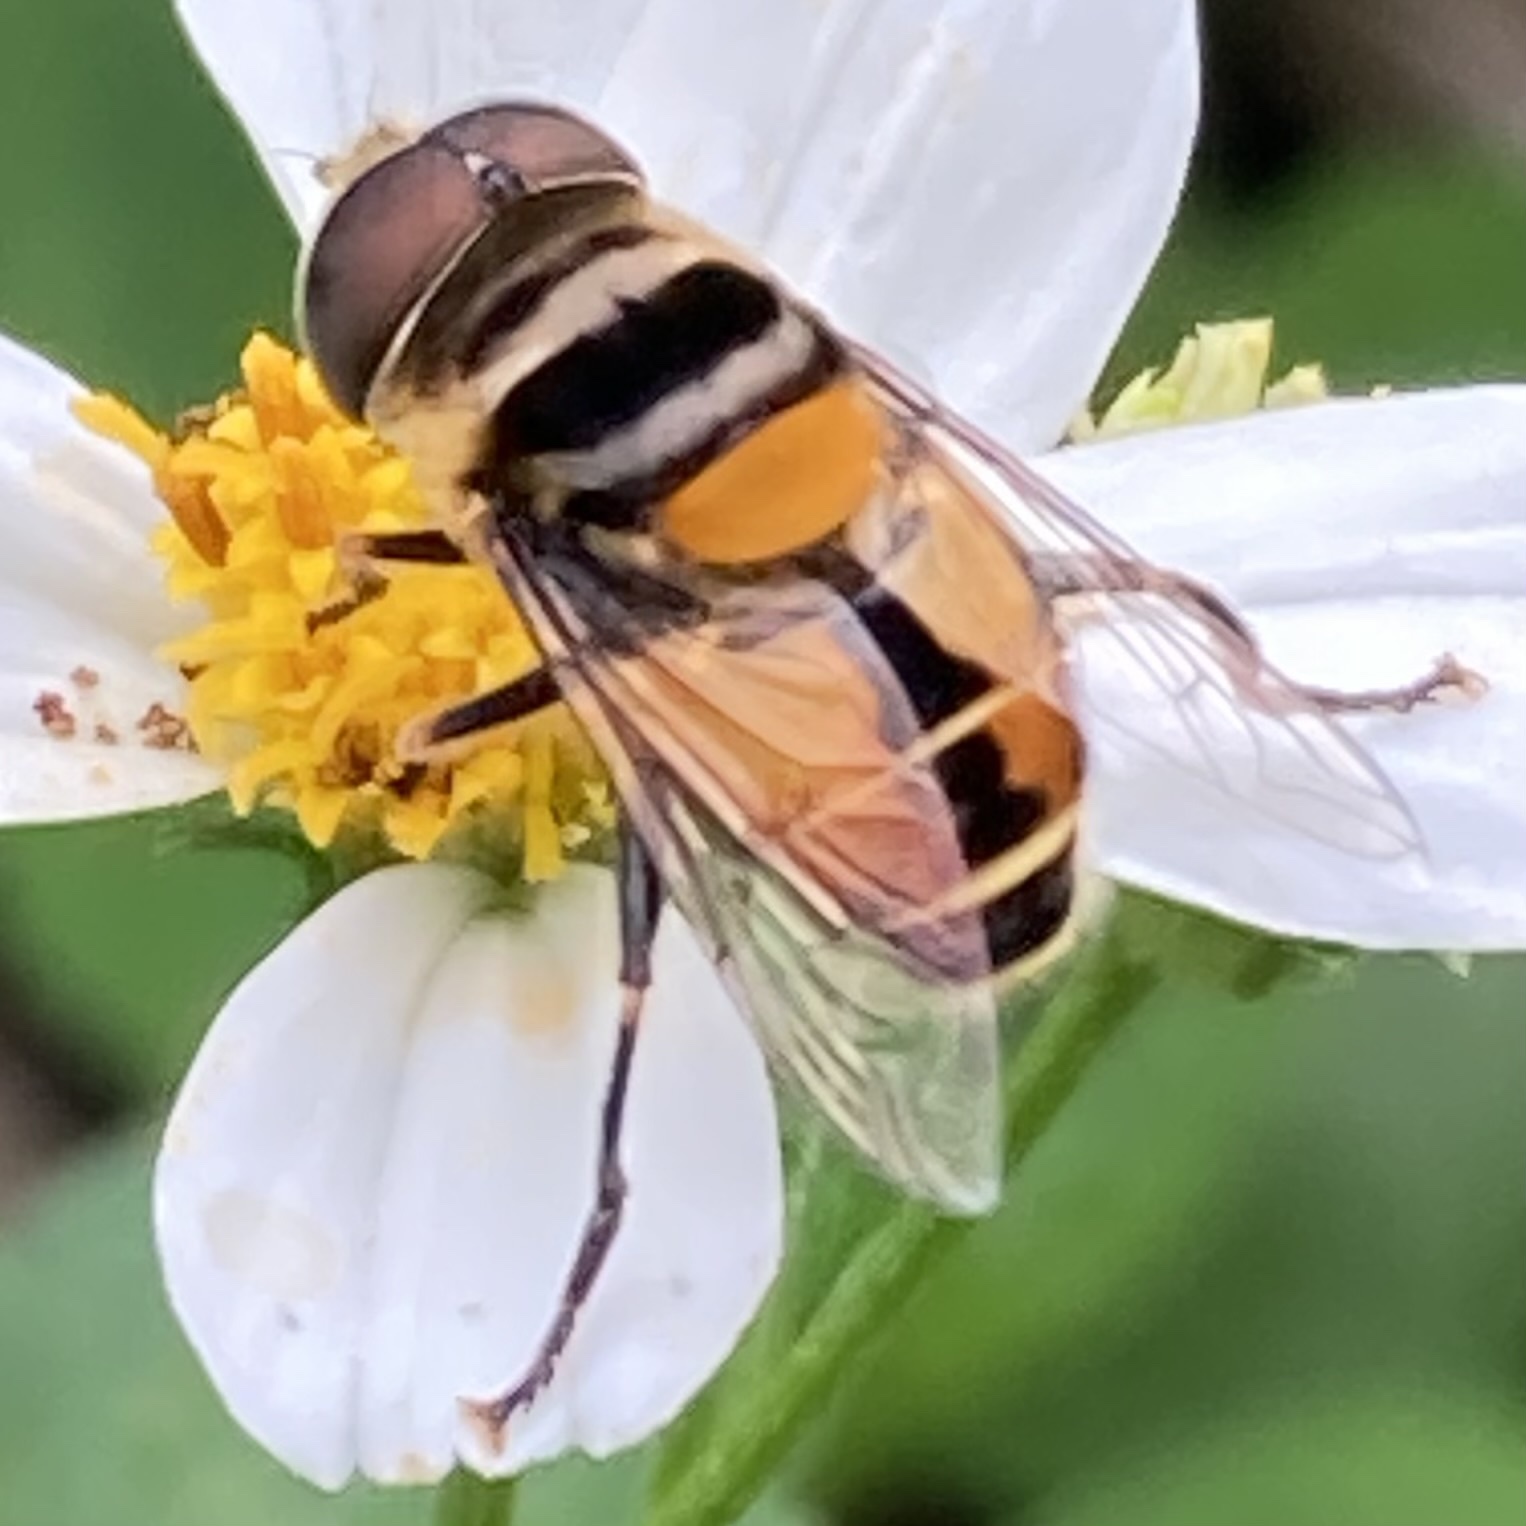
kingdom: Animalia
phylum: Arthropoda
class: Insecta
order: Diptera
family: Syrphidae
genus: Palpada
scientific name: Palpada agrorum
